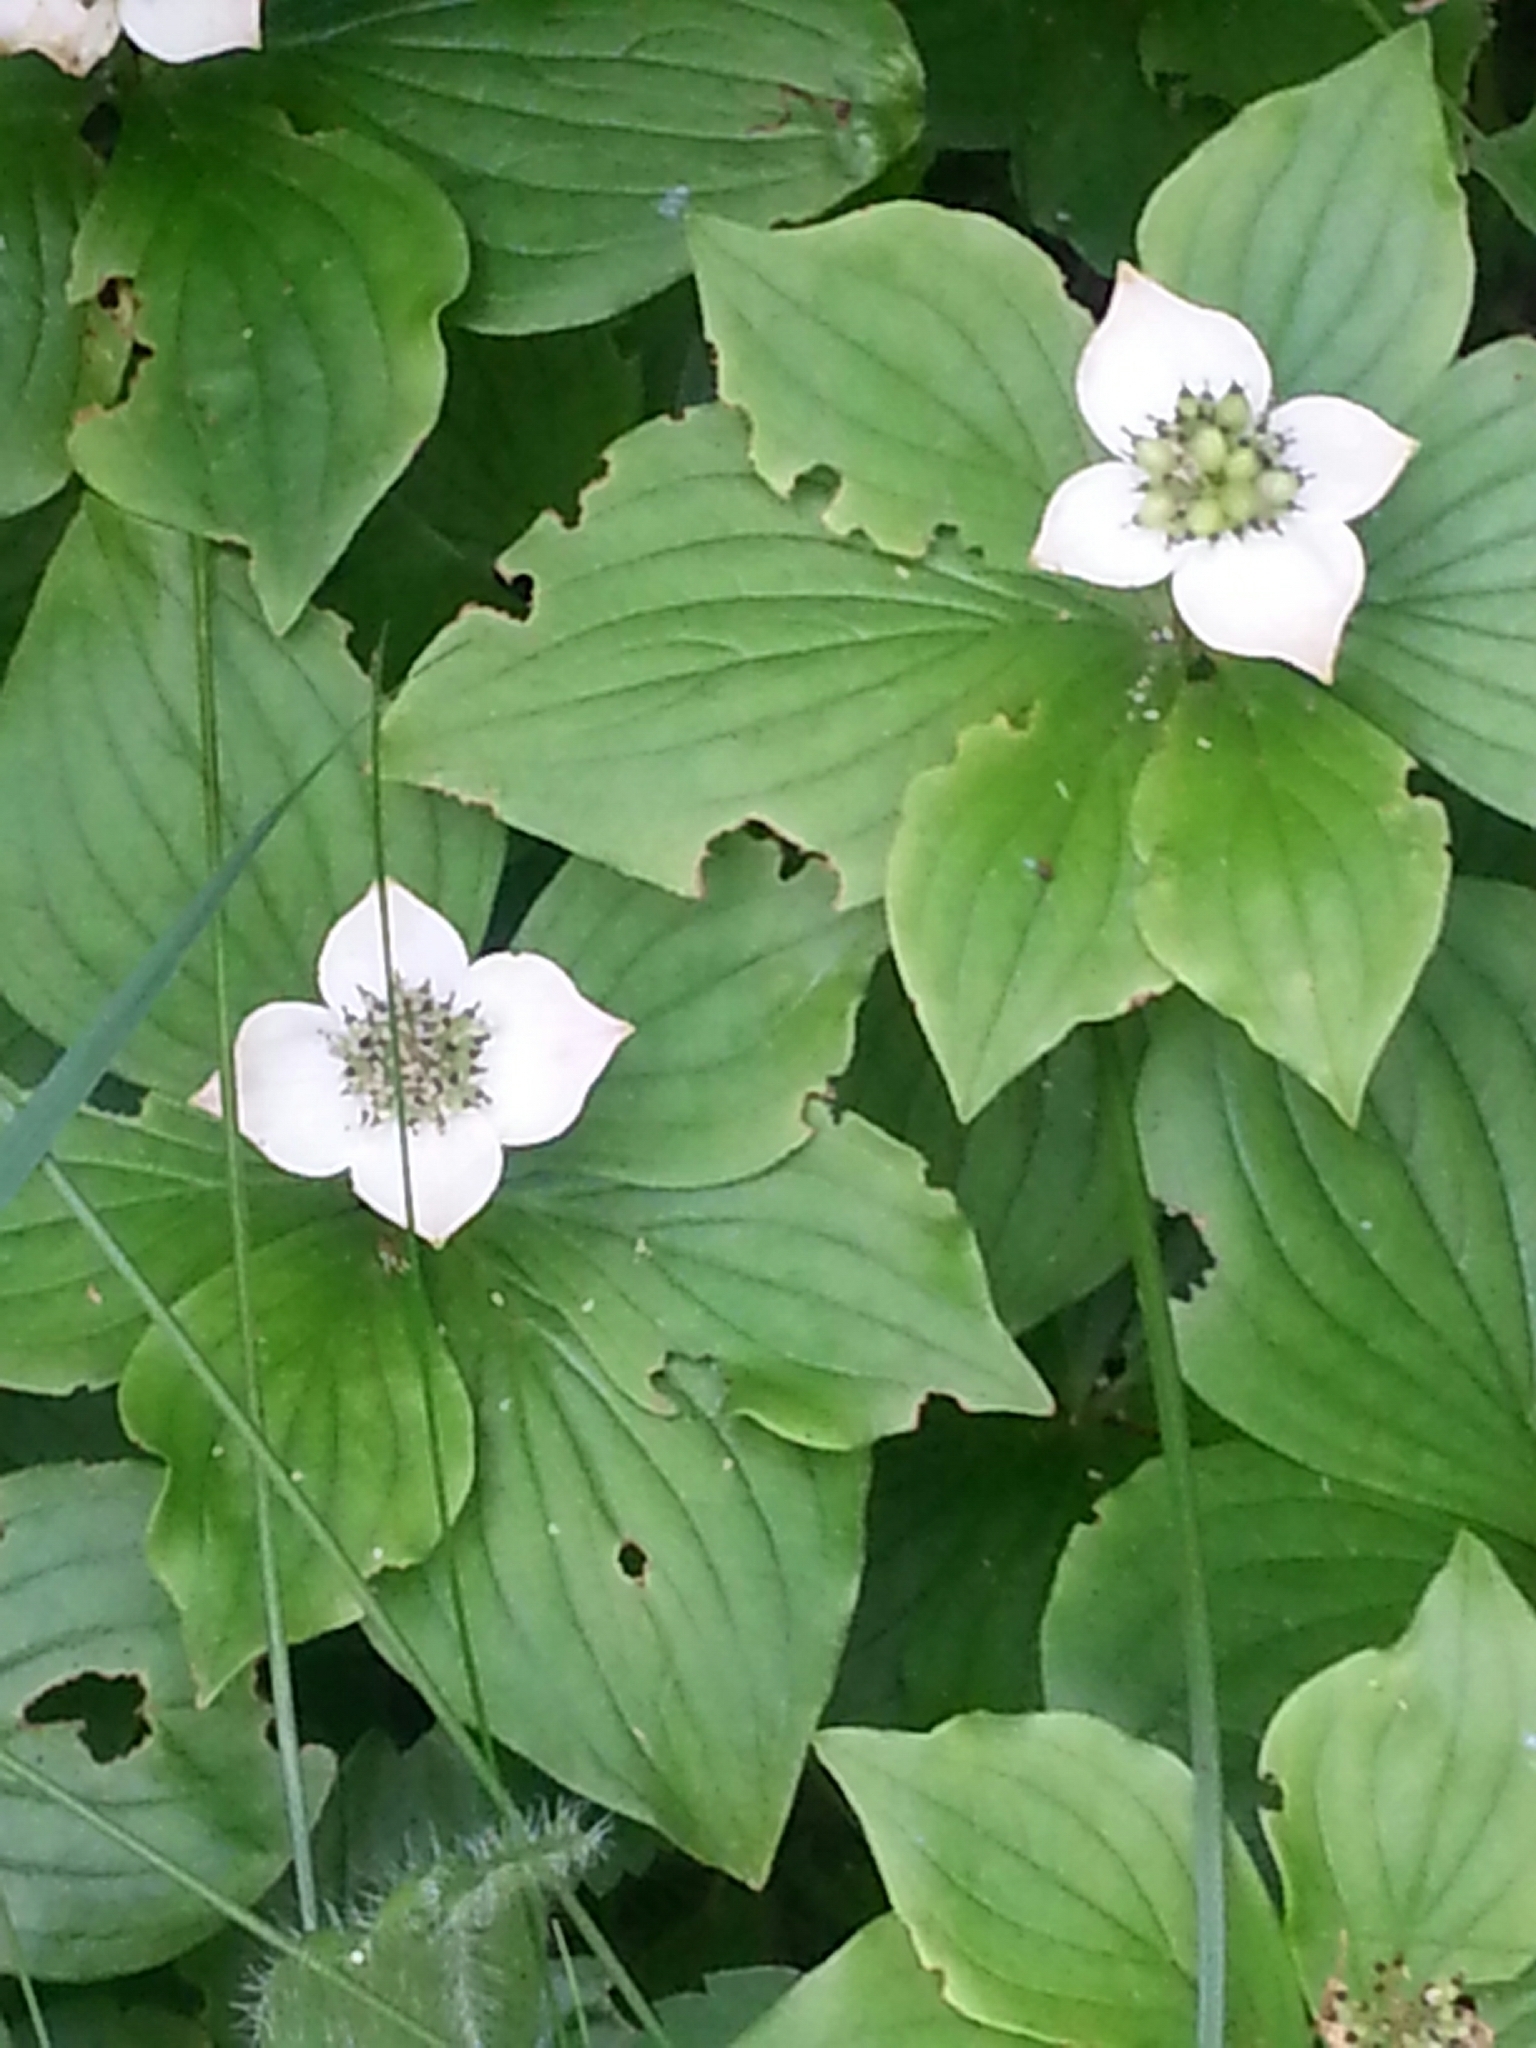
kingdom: Plantae
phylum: Tracheophyta
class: Magnoliopsida
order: Cornales
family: Cornaceae
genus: Cornus
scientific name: Cornus canadensis
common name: Creeping dogwood
